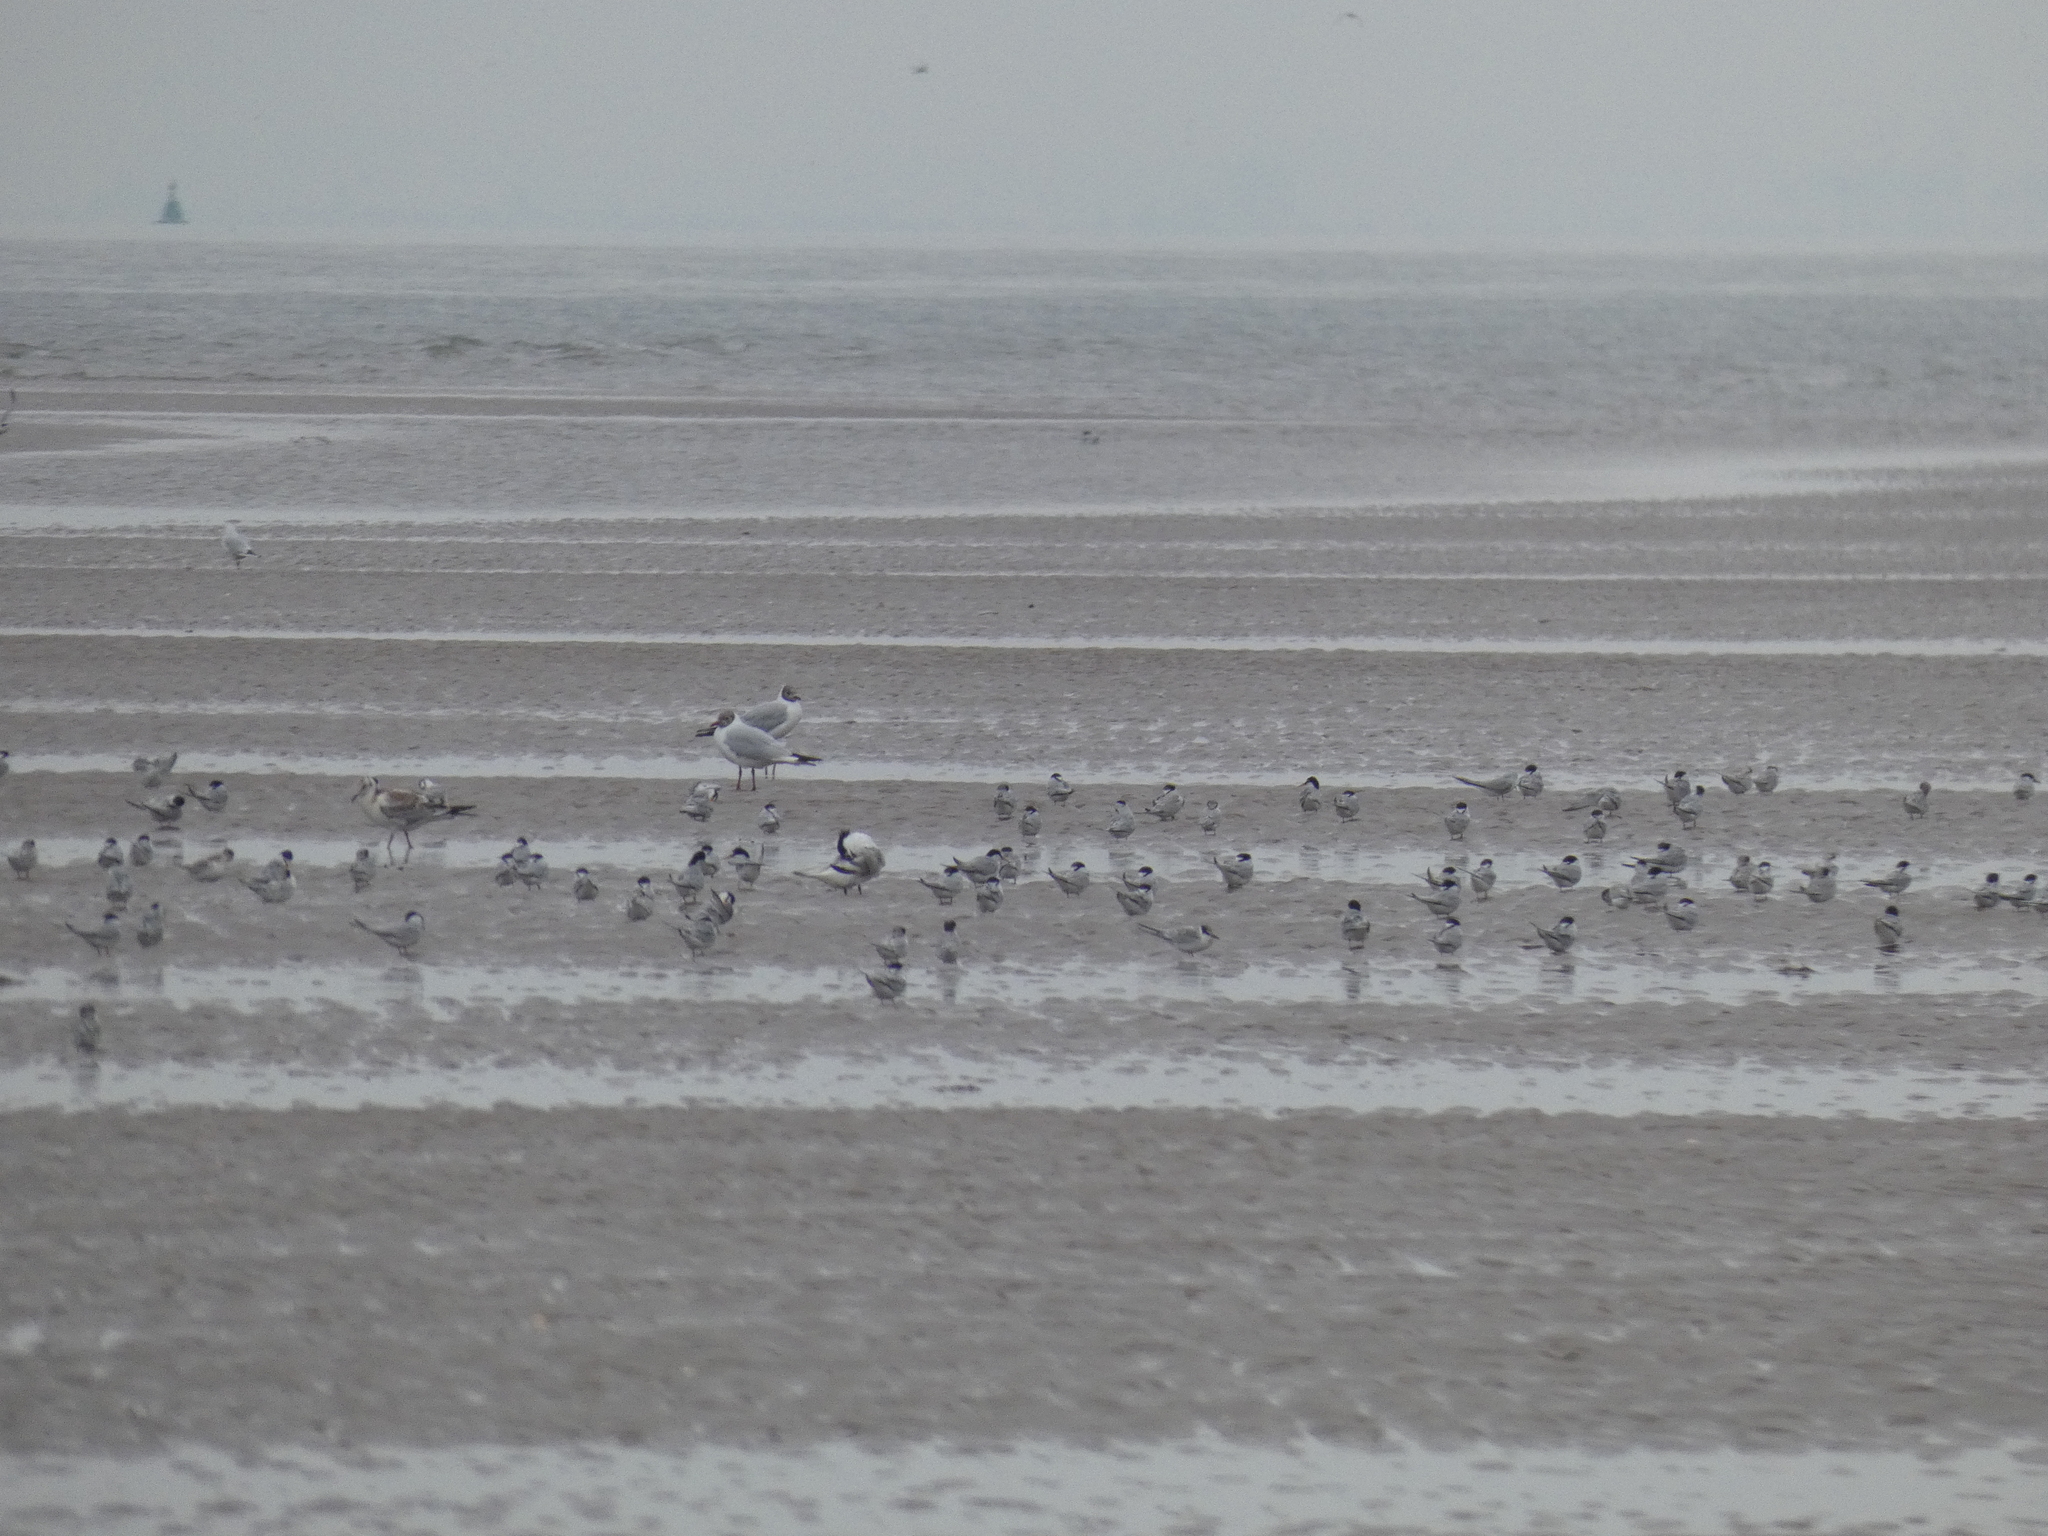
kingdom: Animalia
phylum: Chordata
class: Aves
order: Charadriiformes
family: Laridae
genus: Sternula
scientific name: Sternula albifrons
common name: Little tern
